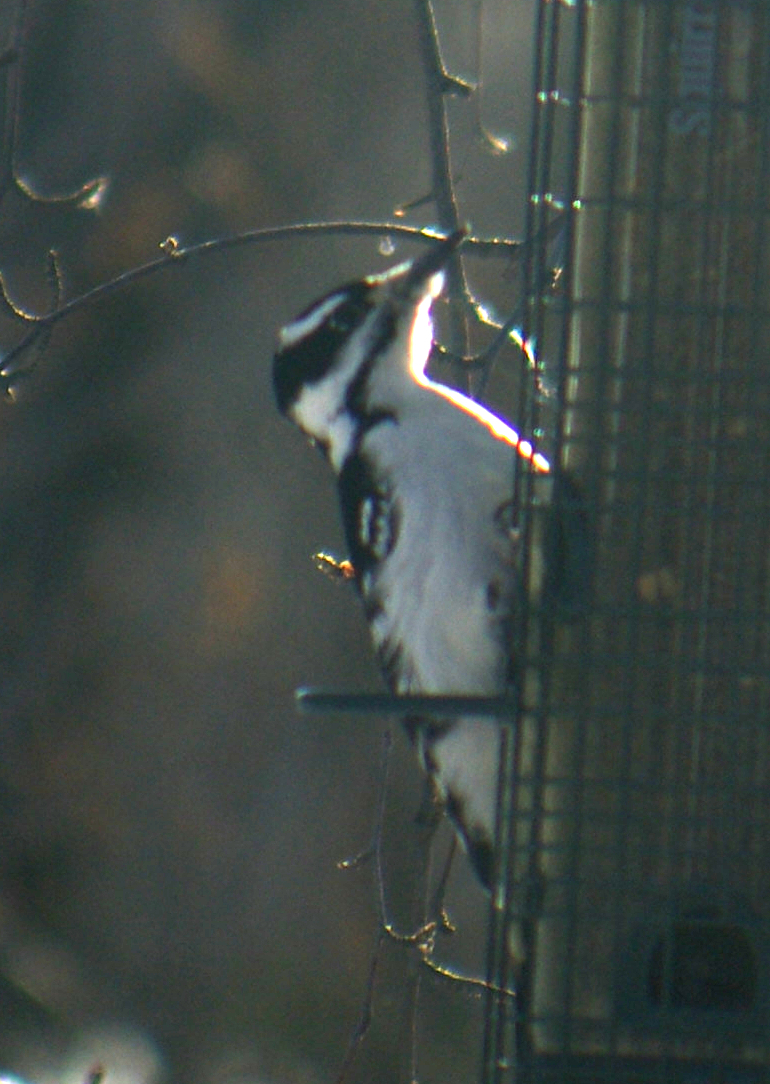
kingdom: Animalia
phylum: Chordata
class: Aves
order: Piciformes
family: Picidae
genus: Leuconotopicus
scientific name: Leuconotopicus villosus
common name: Hairy woodpecker
